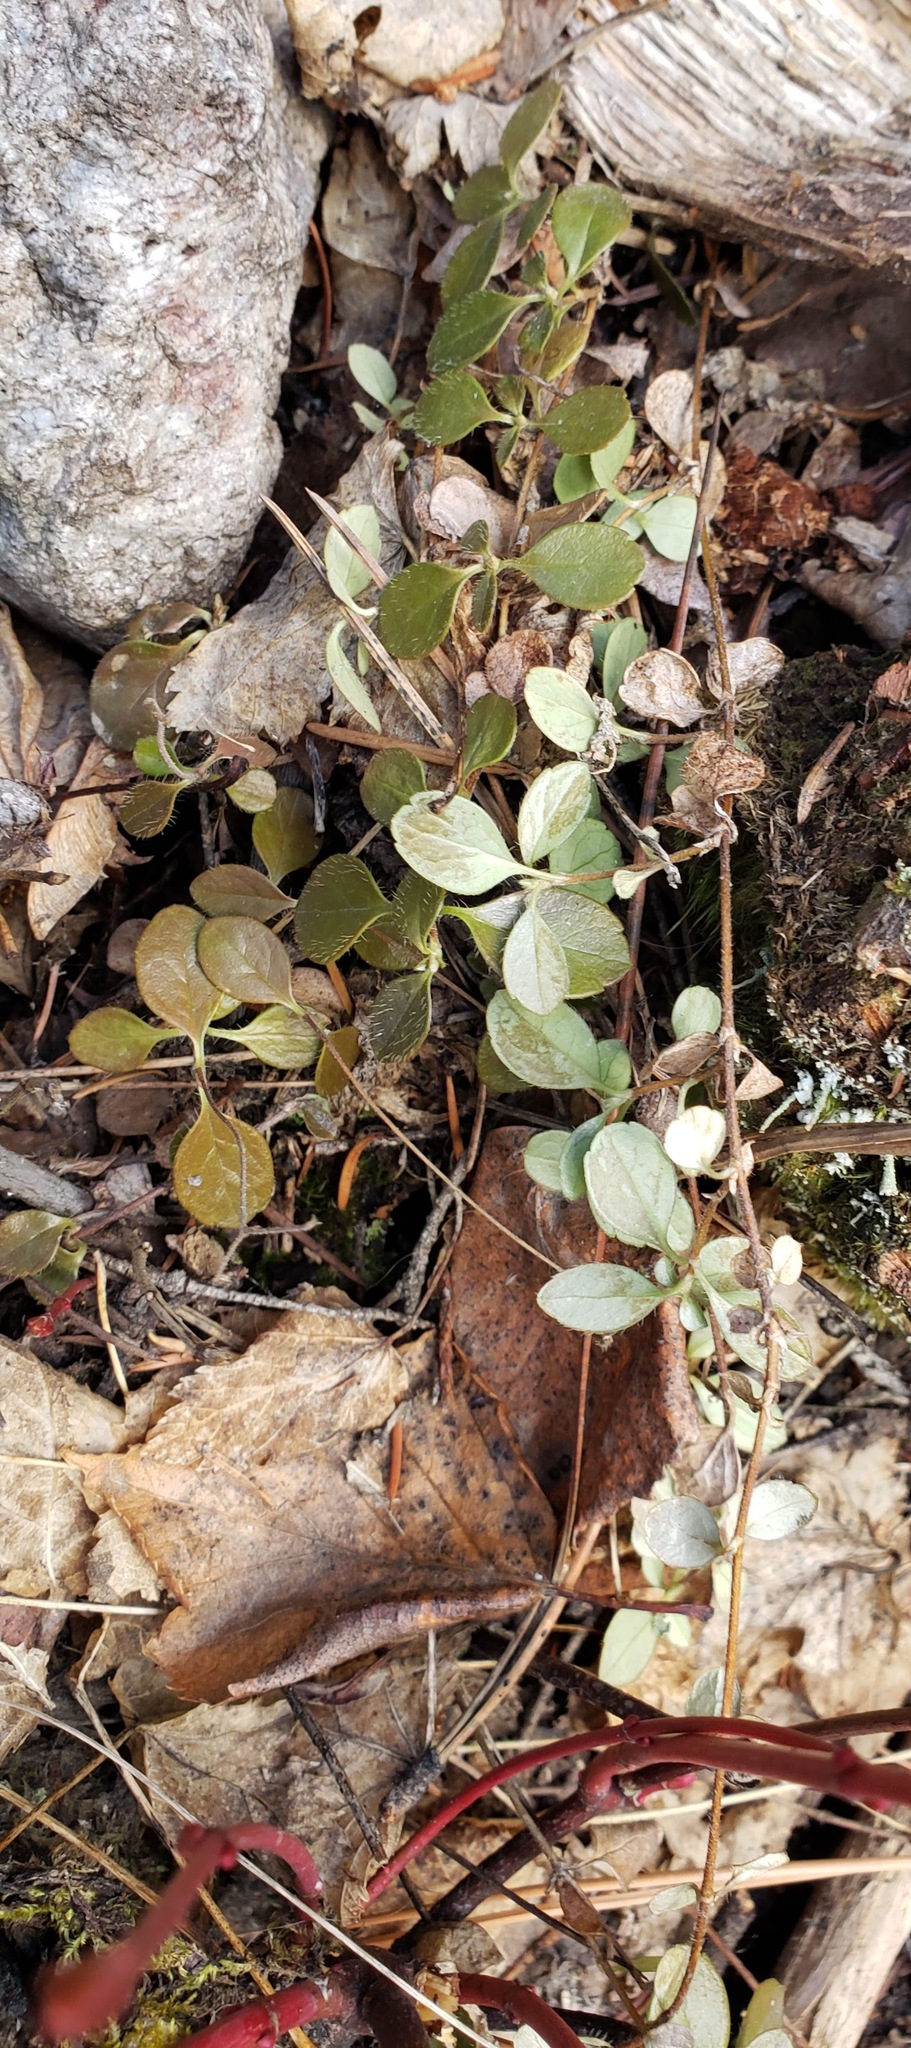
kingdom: Plantae
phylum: Tracheophyta
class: Magnoliopsida
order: Dipsacales
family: Caprifoliaceae
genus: Linnaea
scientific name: Linnaea borealis
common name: Twinflower
